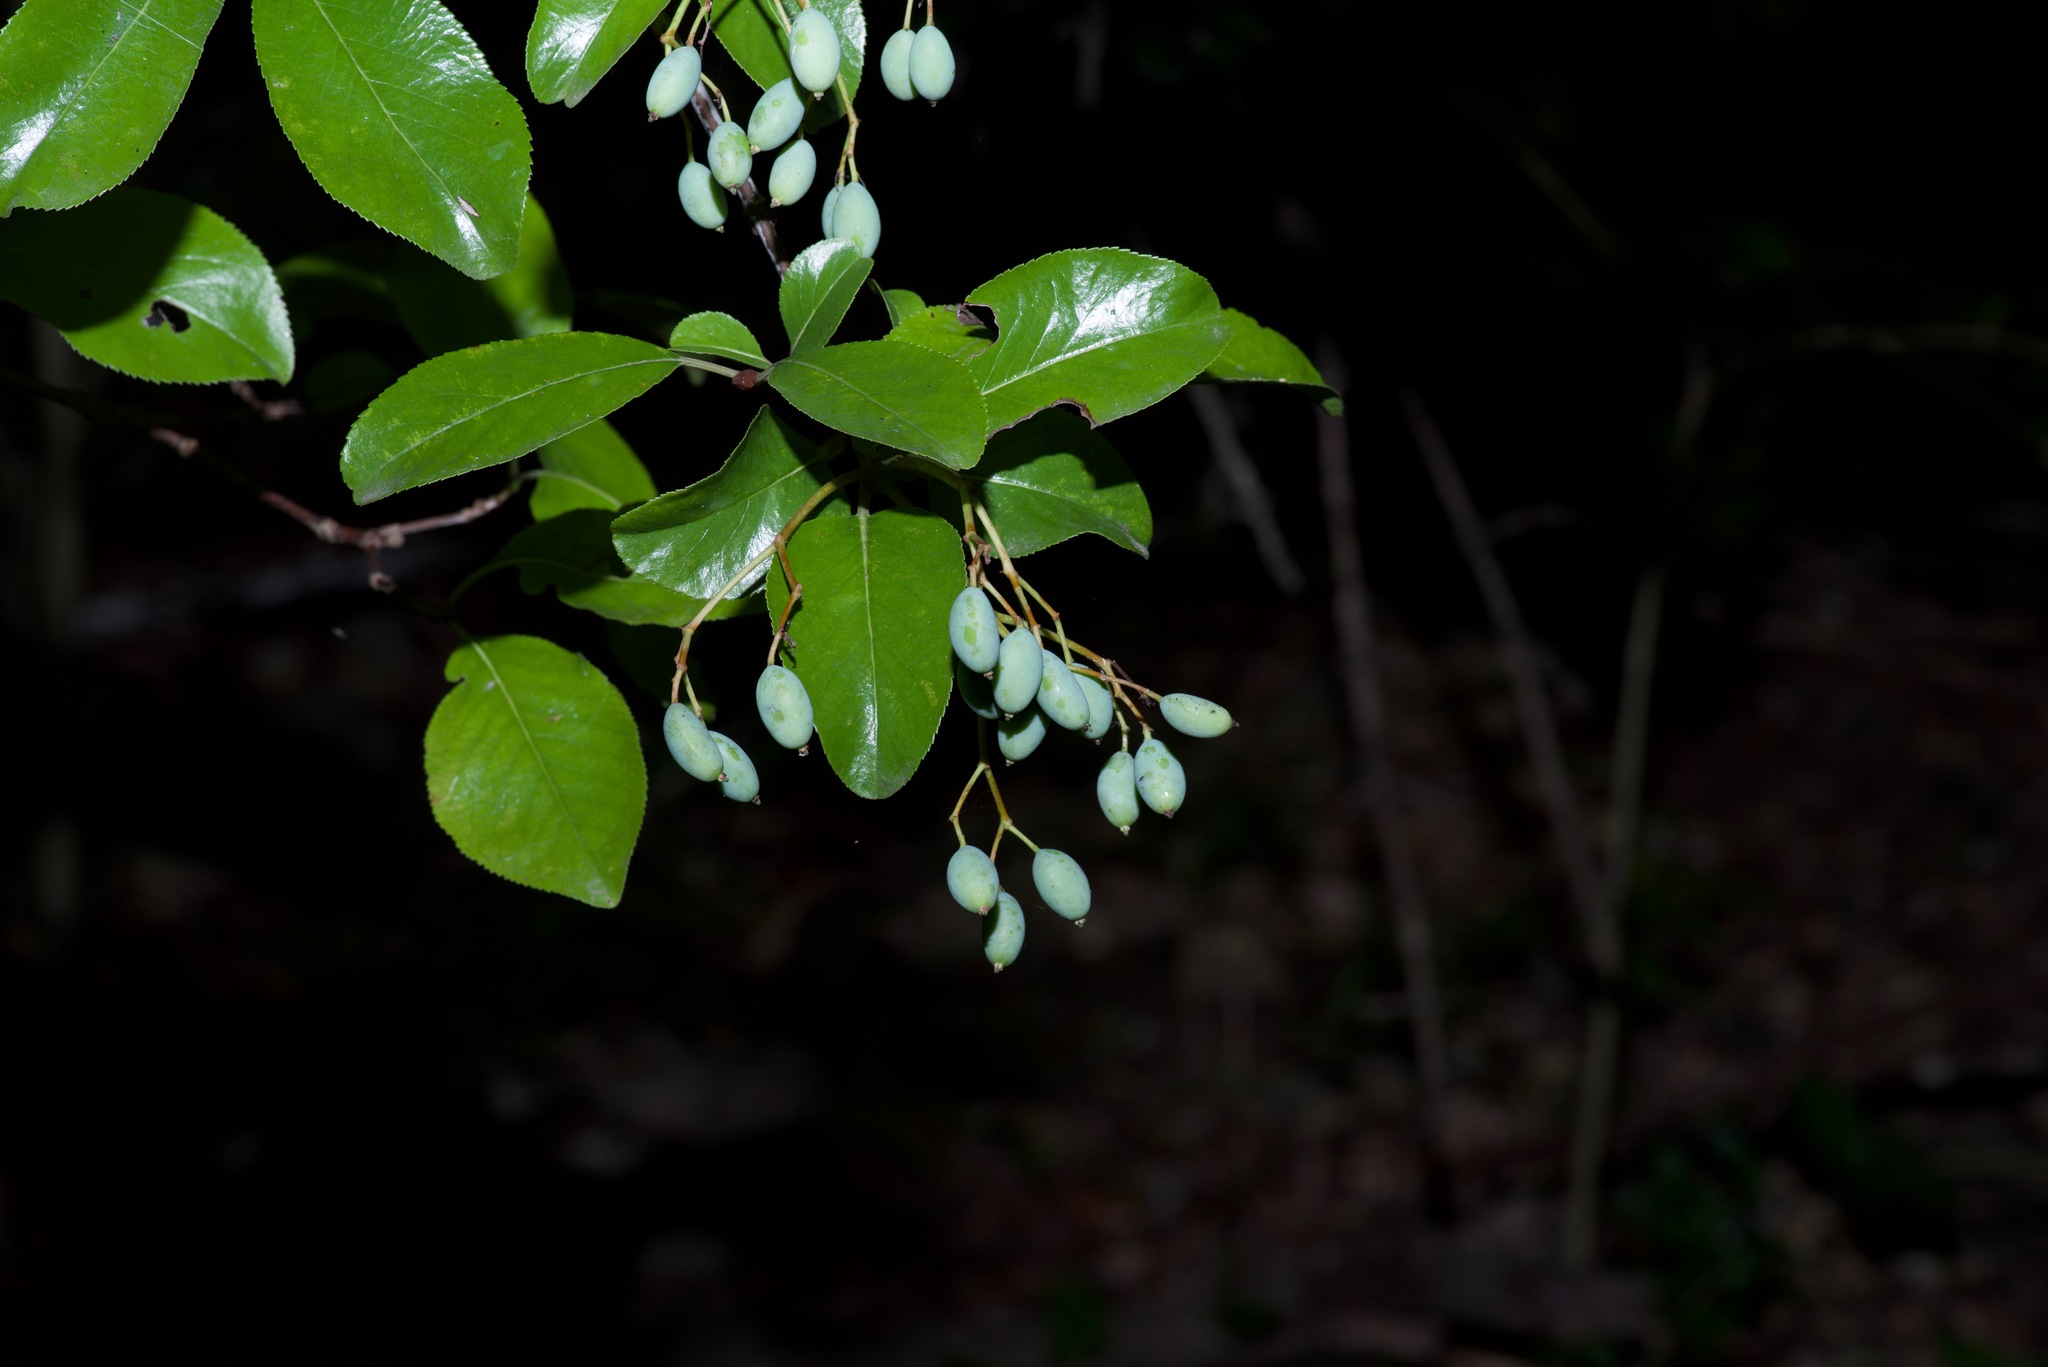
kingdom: Plantae
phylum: Tracheophyta
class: Magnoliopsida
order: Dipsacales
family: Viburnaceae
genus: Viburnum
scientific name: Viburnum rufidulum
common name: Blue haw
